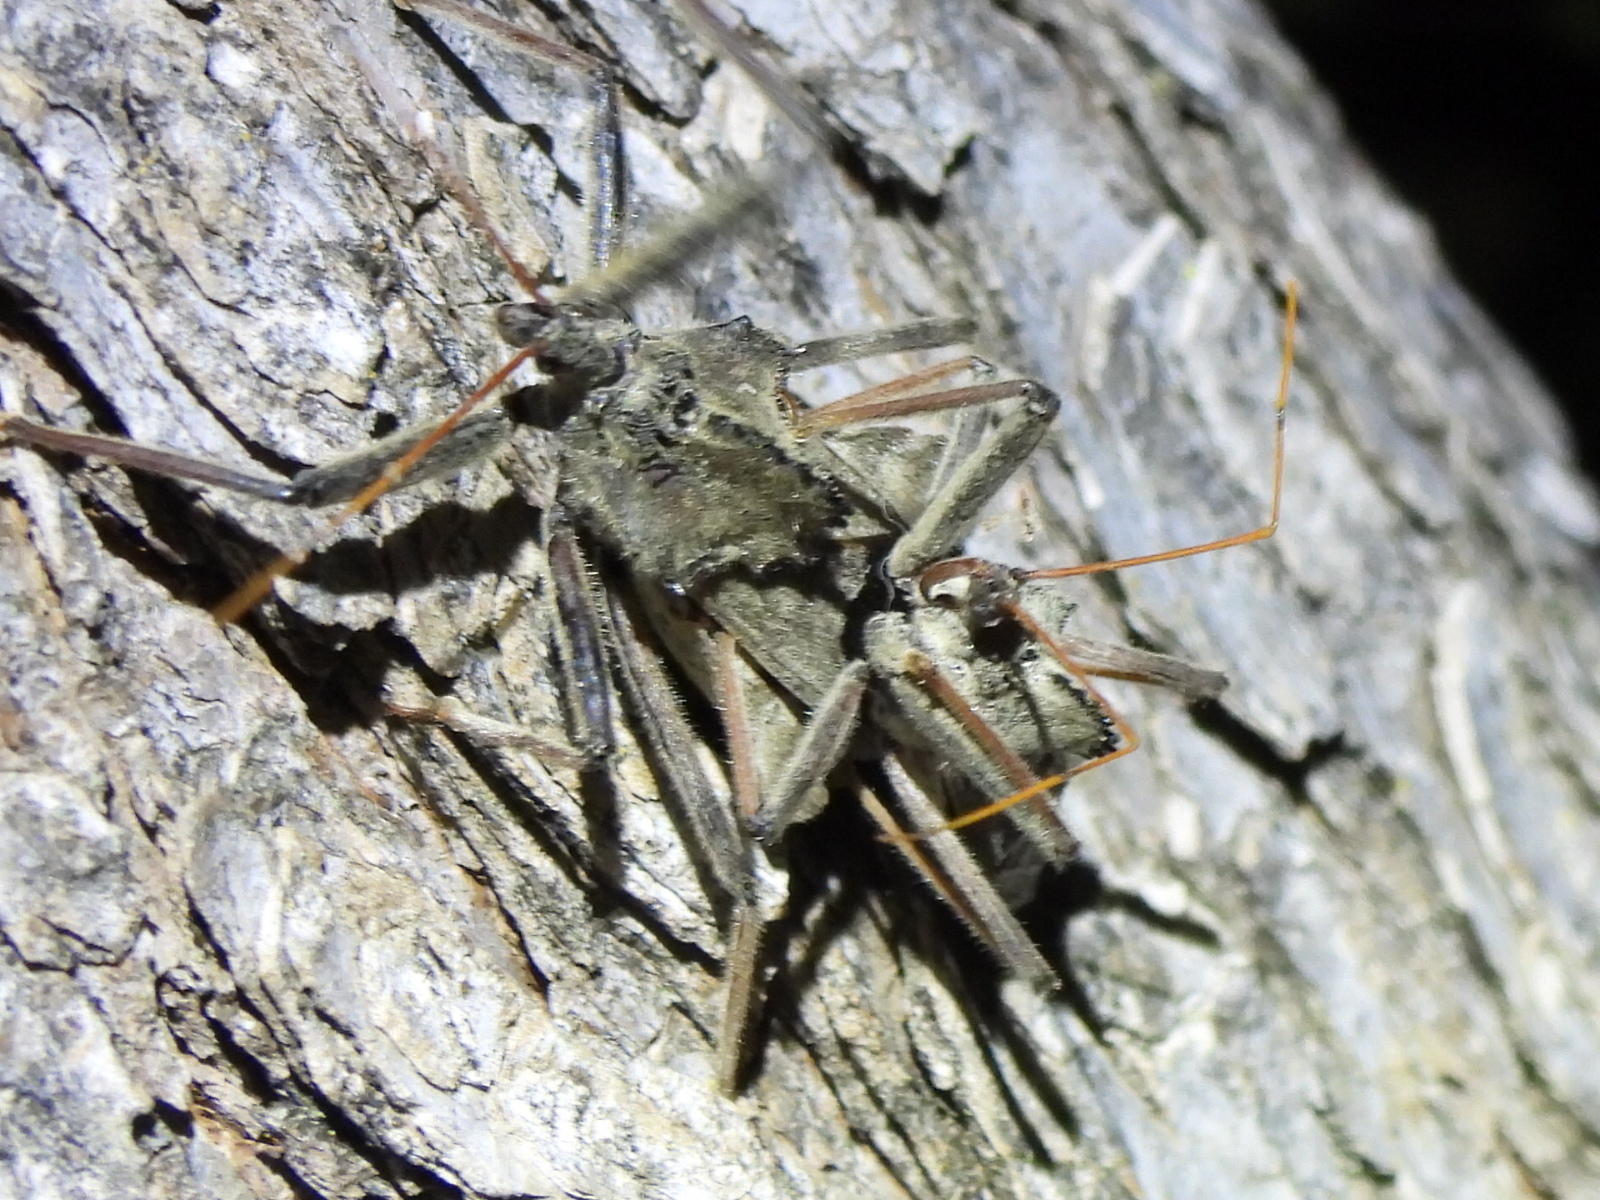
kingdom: Animalia
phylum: Arthropoda
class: Insecta
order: Hemiptera
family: Reduviidae
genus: Arilus
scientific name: Arilus cristatus
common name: North american wheel bug
